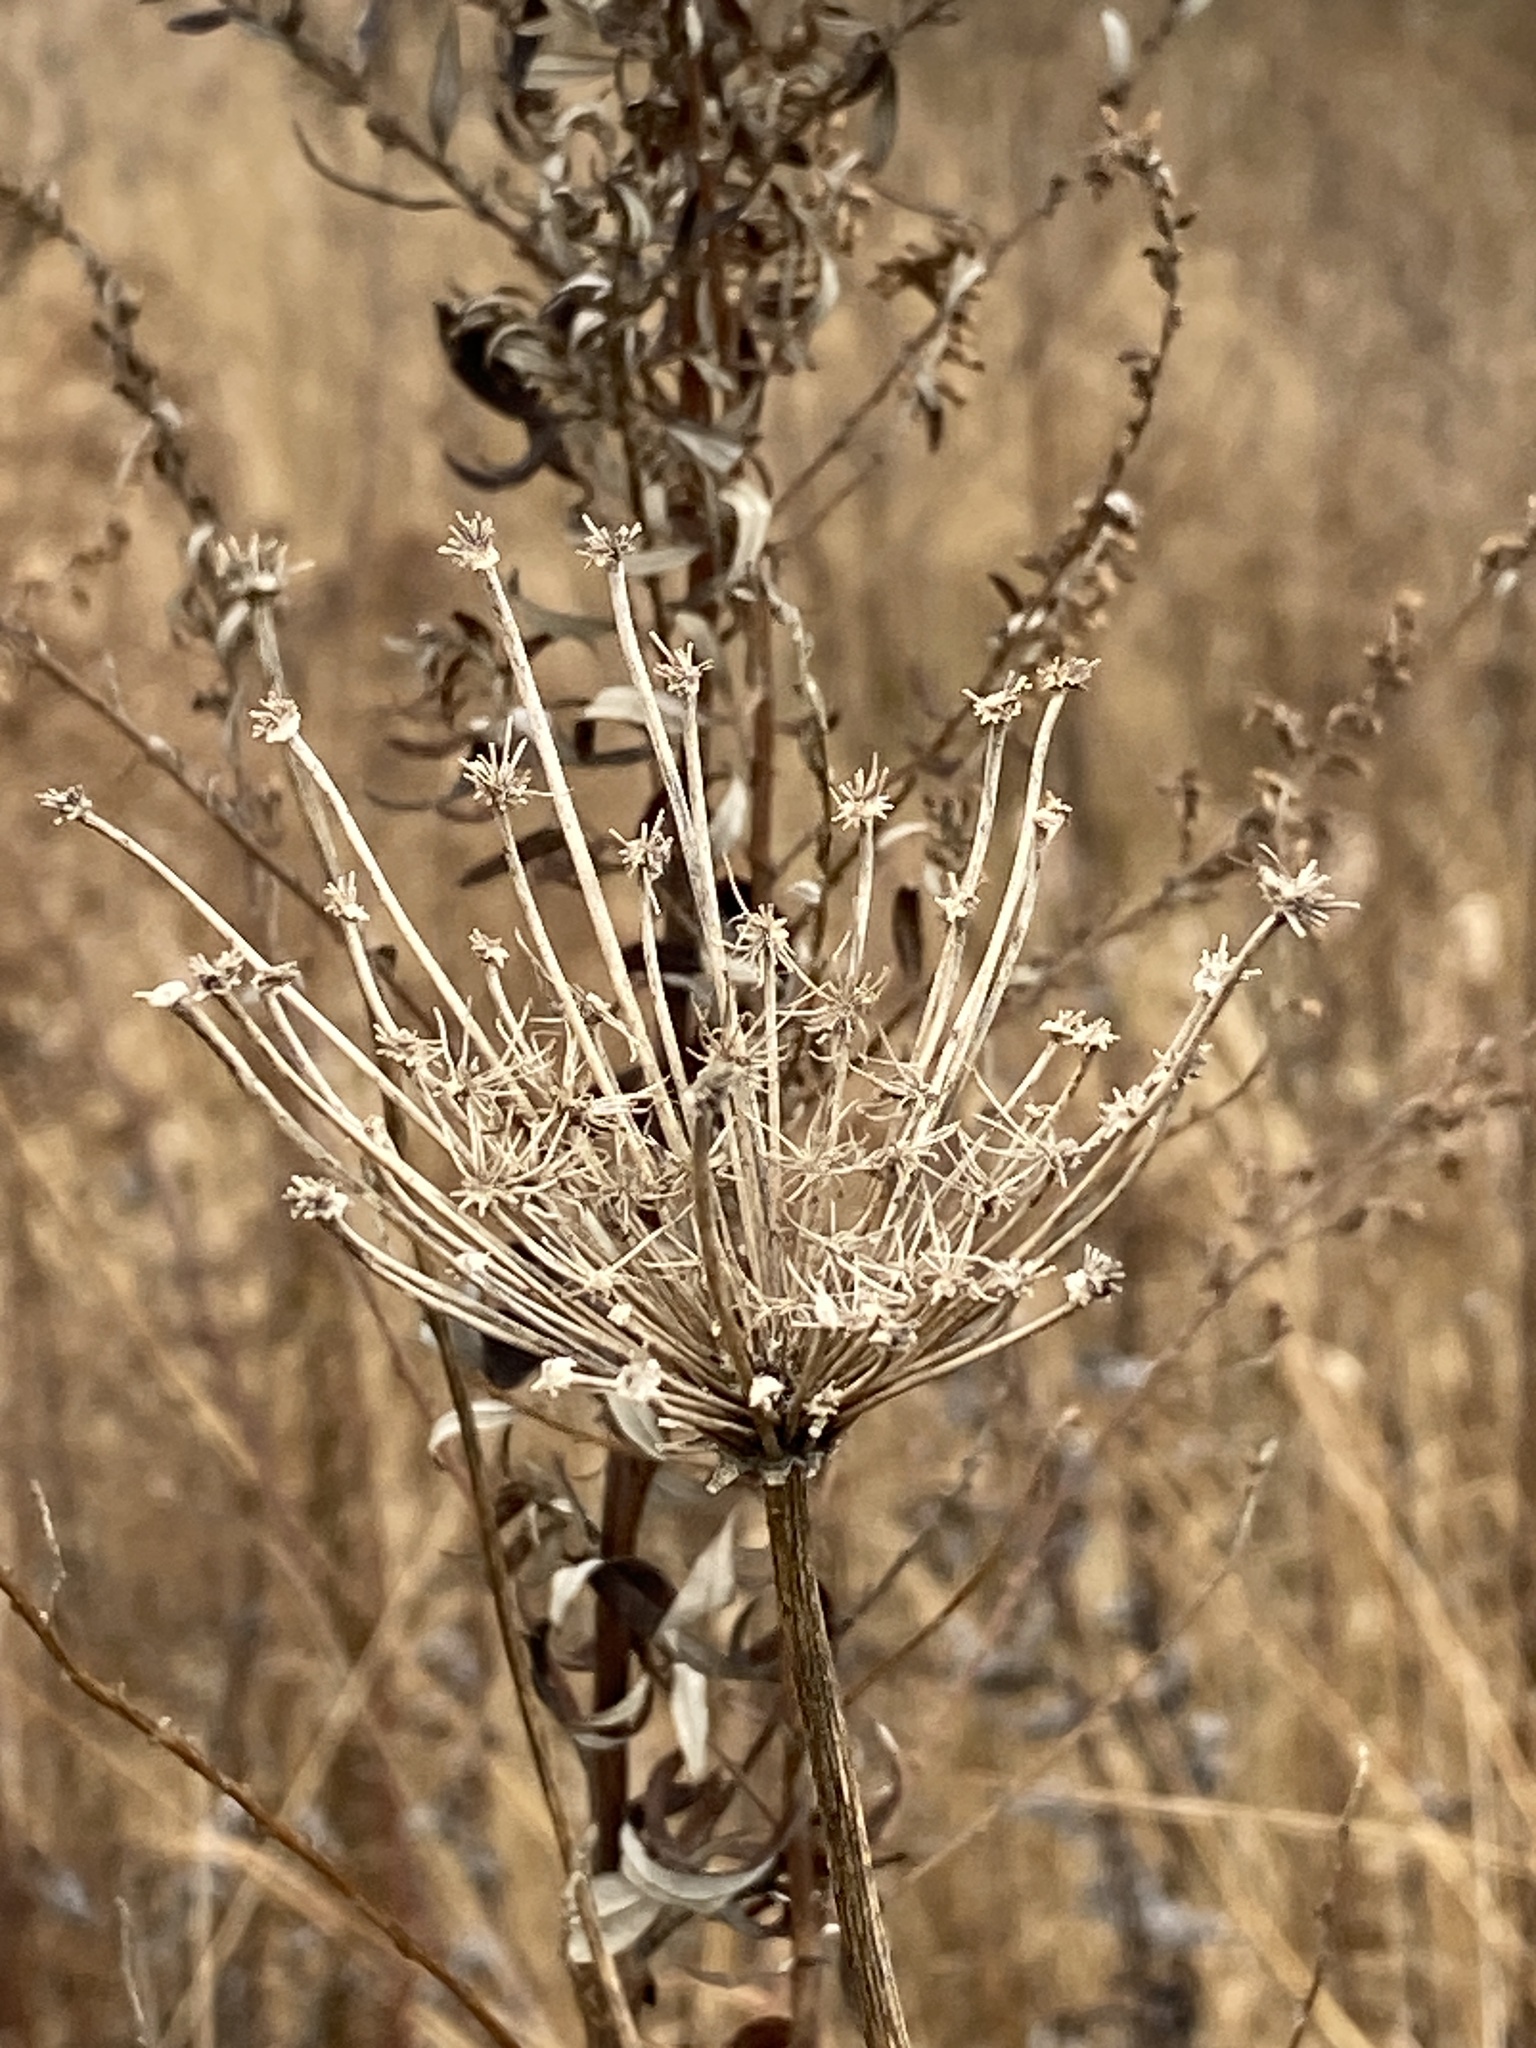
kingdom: Plantae
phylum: Tracheophyta
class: Magnoliopsida
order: Apiales
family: Apiaceae
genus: Daucus
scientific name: Daucus carota
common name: Wild carrot
